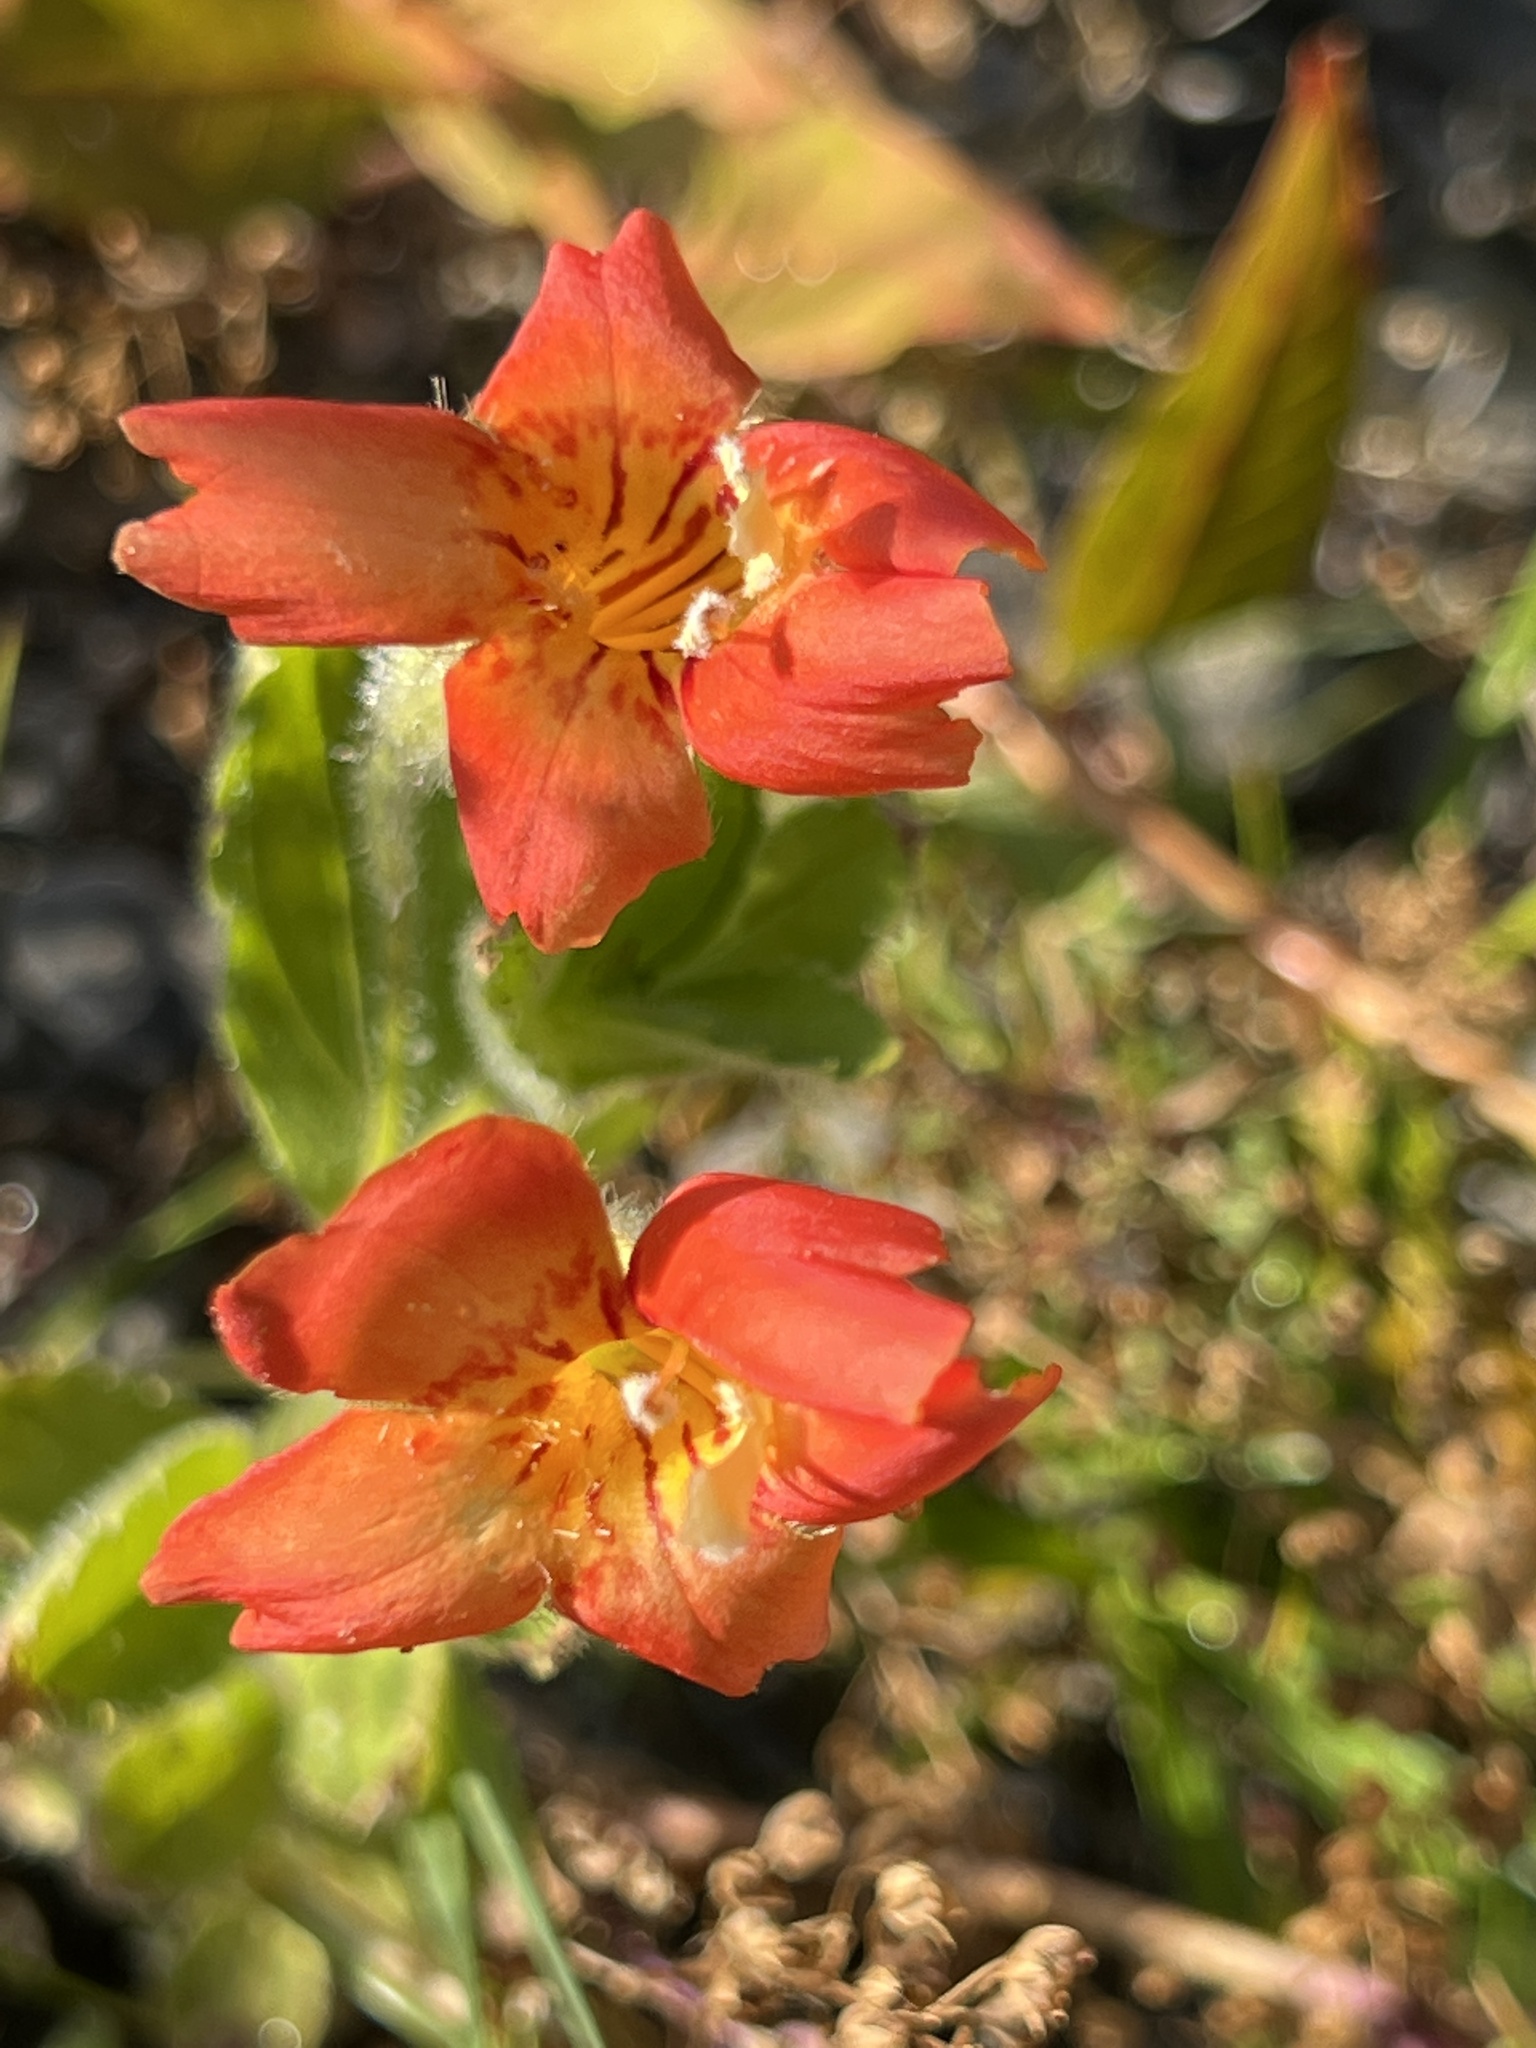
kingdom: Plantae
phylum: Tracheophyta
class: Magnoliopsida
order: Lamiales
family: Phrymaceae
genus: Erythranthe
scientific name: Erythranthe cardinalis
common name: Scarlet monkey-flower
